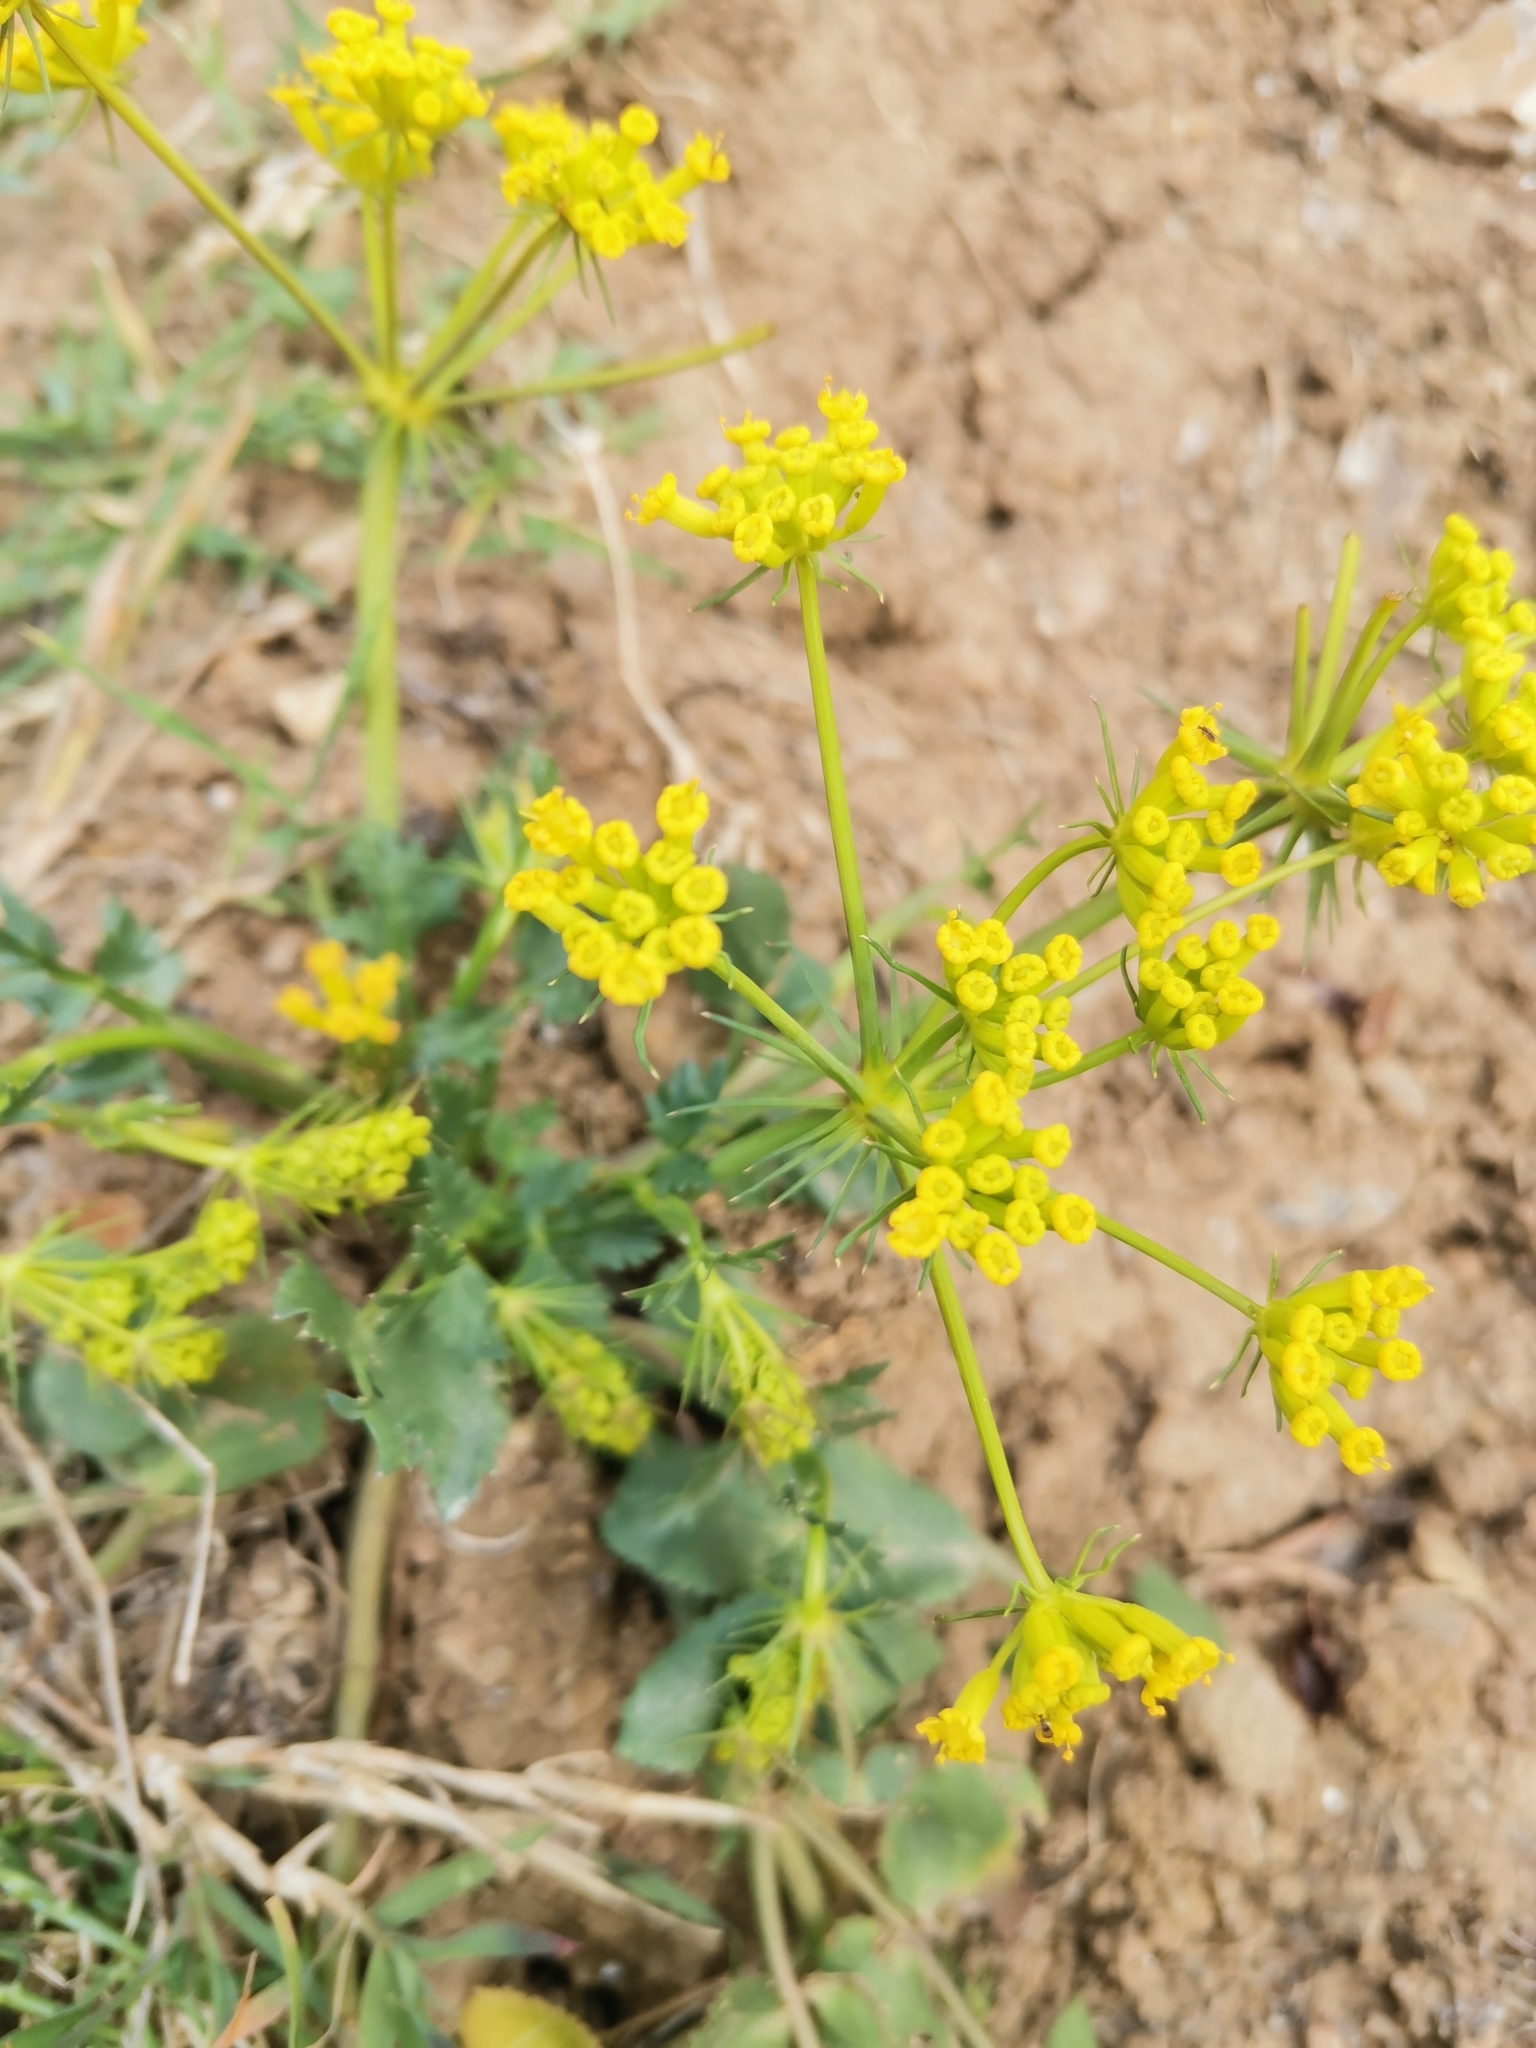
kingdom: Plantae
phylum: Tracheophyta
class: Magnoliopsida
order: Apiales
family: Apiaceae
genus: Kundmannia
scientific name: Kundmannia sicula
